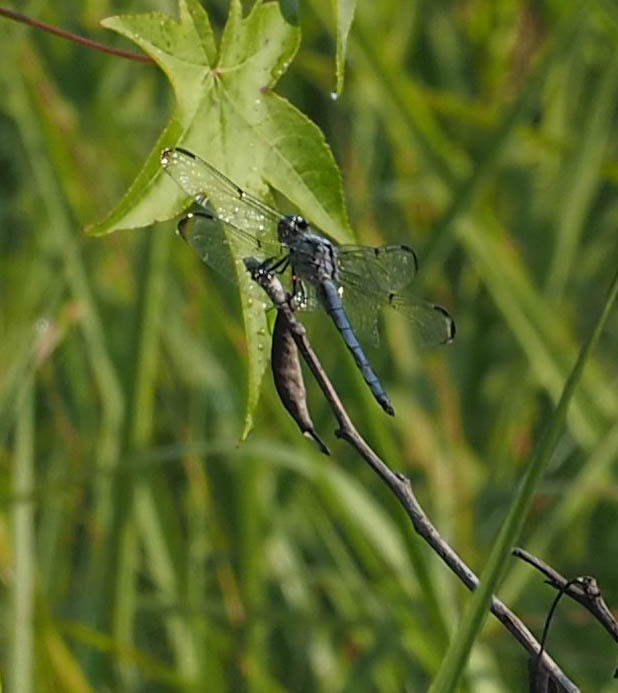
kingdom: Animalia
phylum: Arthropoda
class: Insecta
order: Odonata
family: Libellulidae
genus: Libellula
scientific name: Libellula incesta
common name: Slaty skimmer
